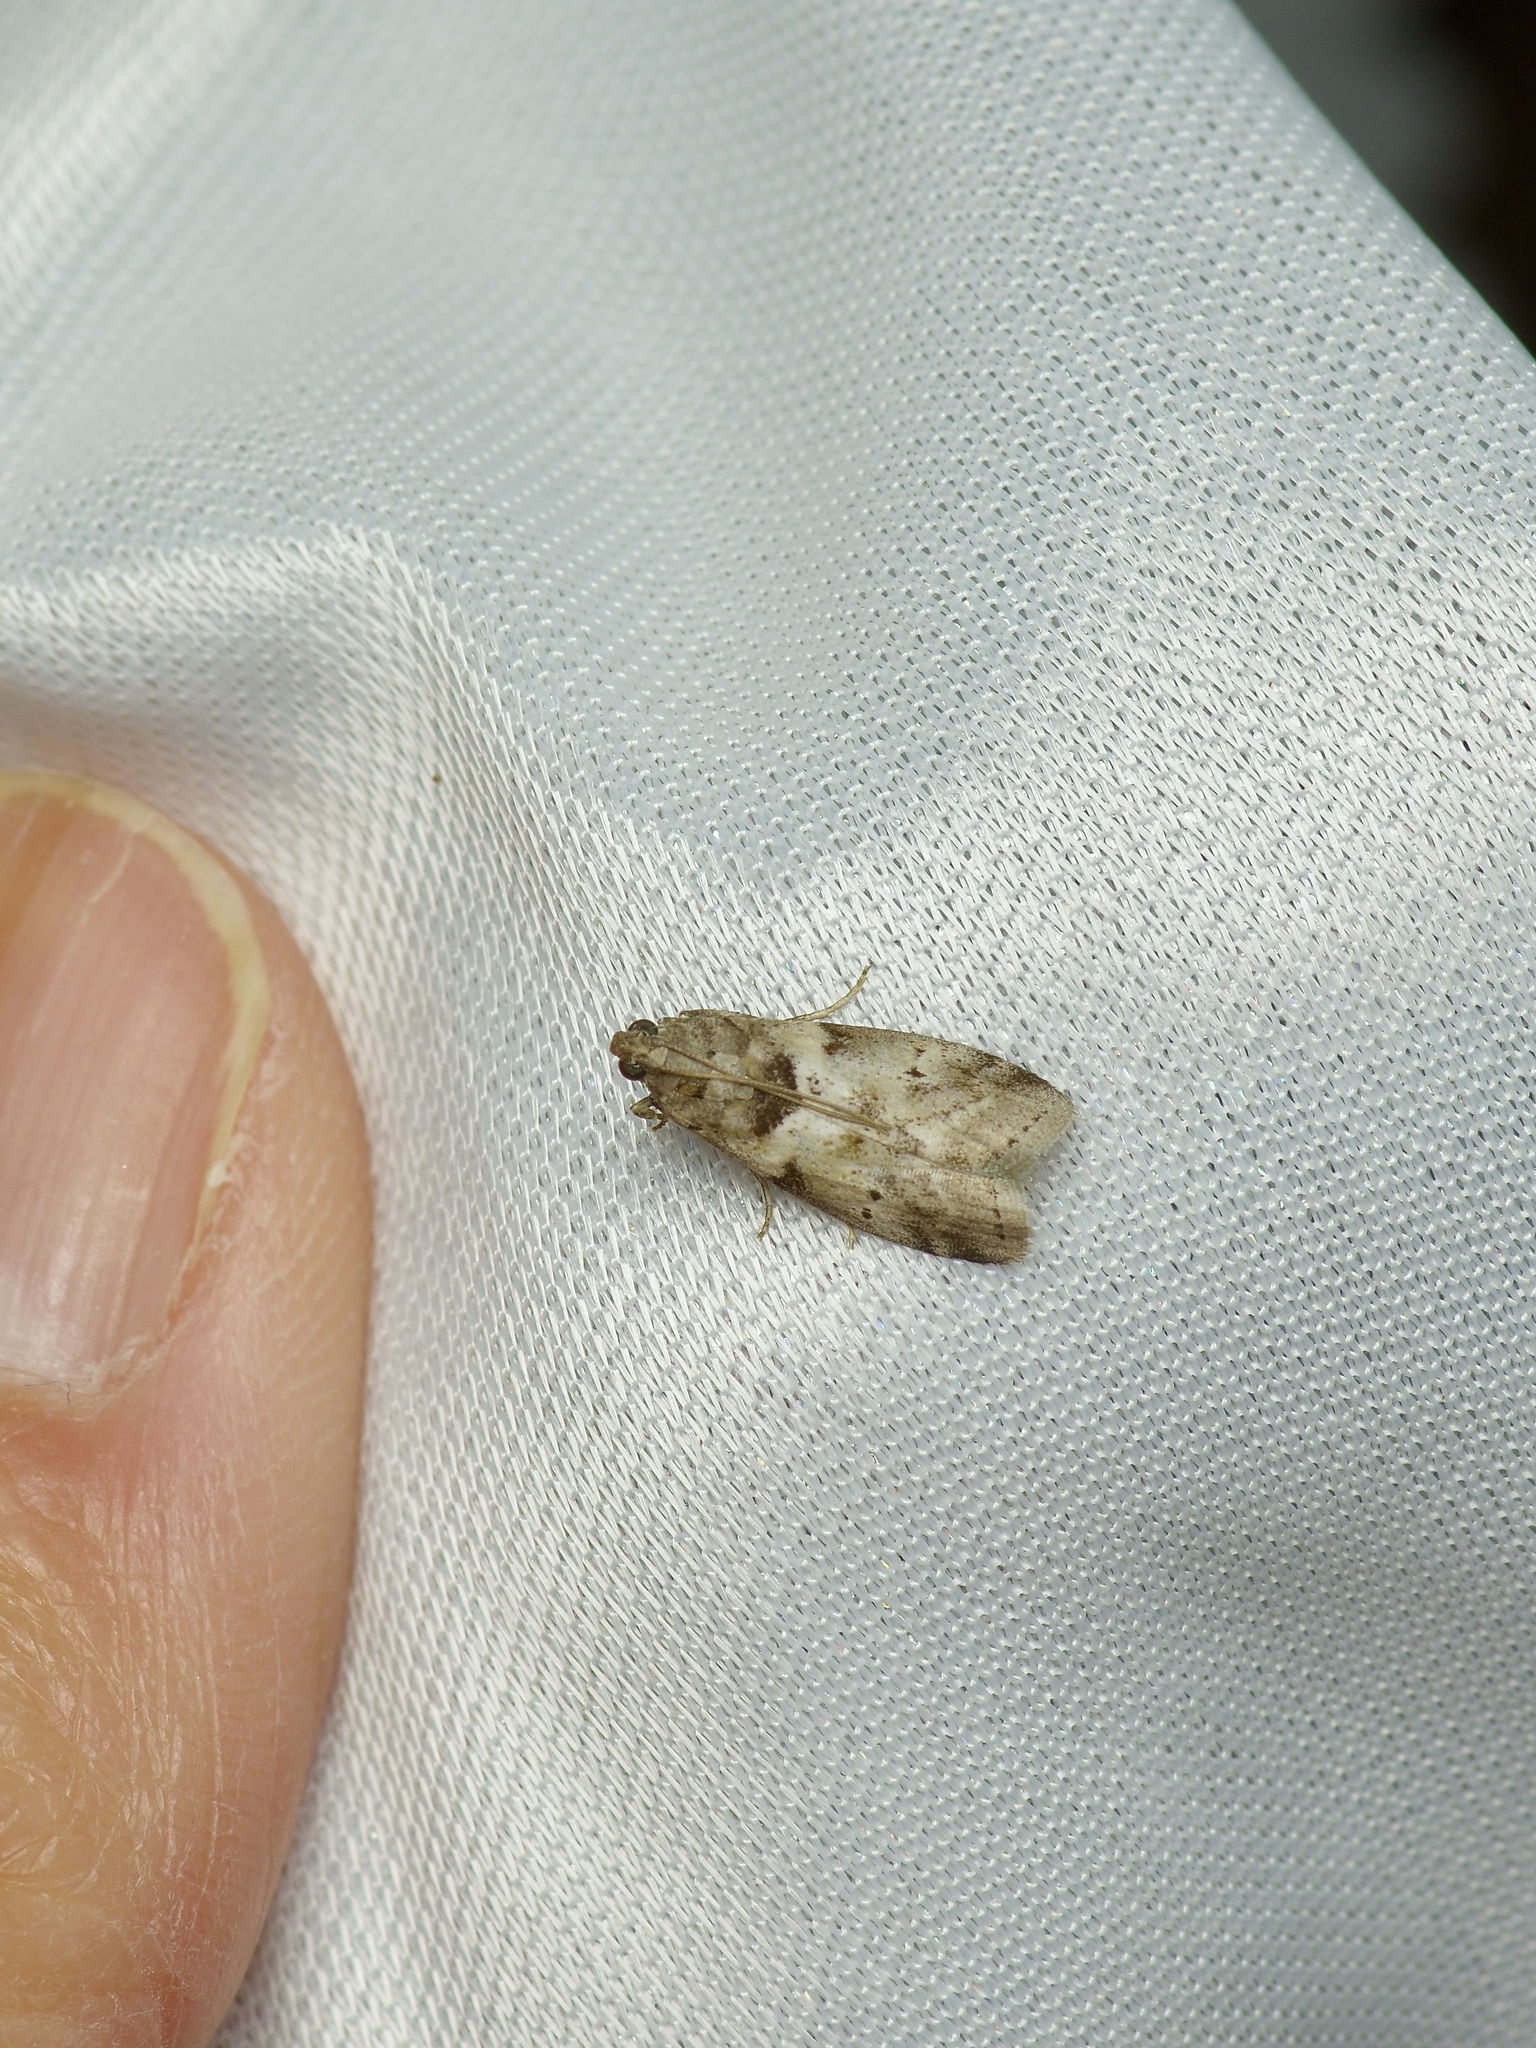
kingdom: Animalia
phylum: Arthropoda
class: Insecta
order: Lepidoptera
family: Pyralidae
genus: Salebriaria
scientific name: Salebriaria annulosella
